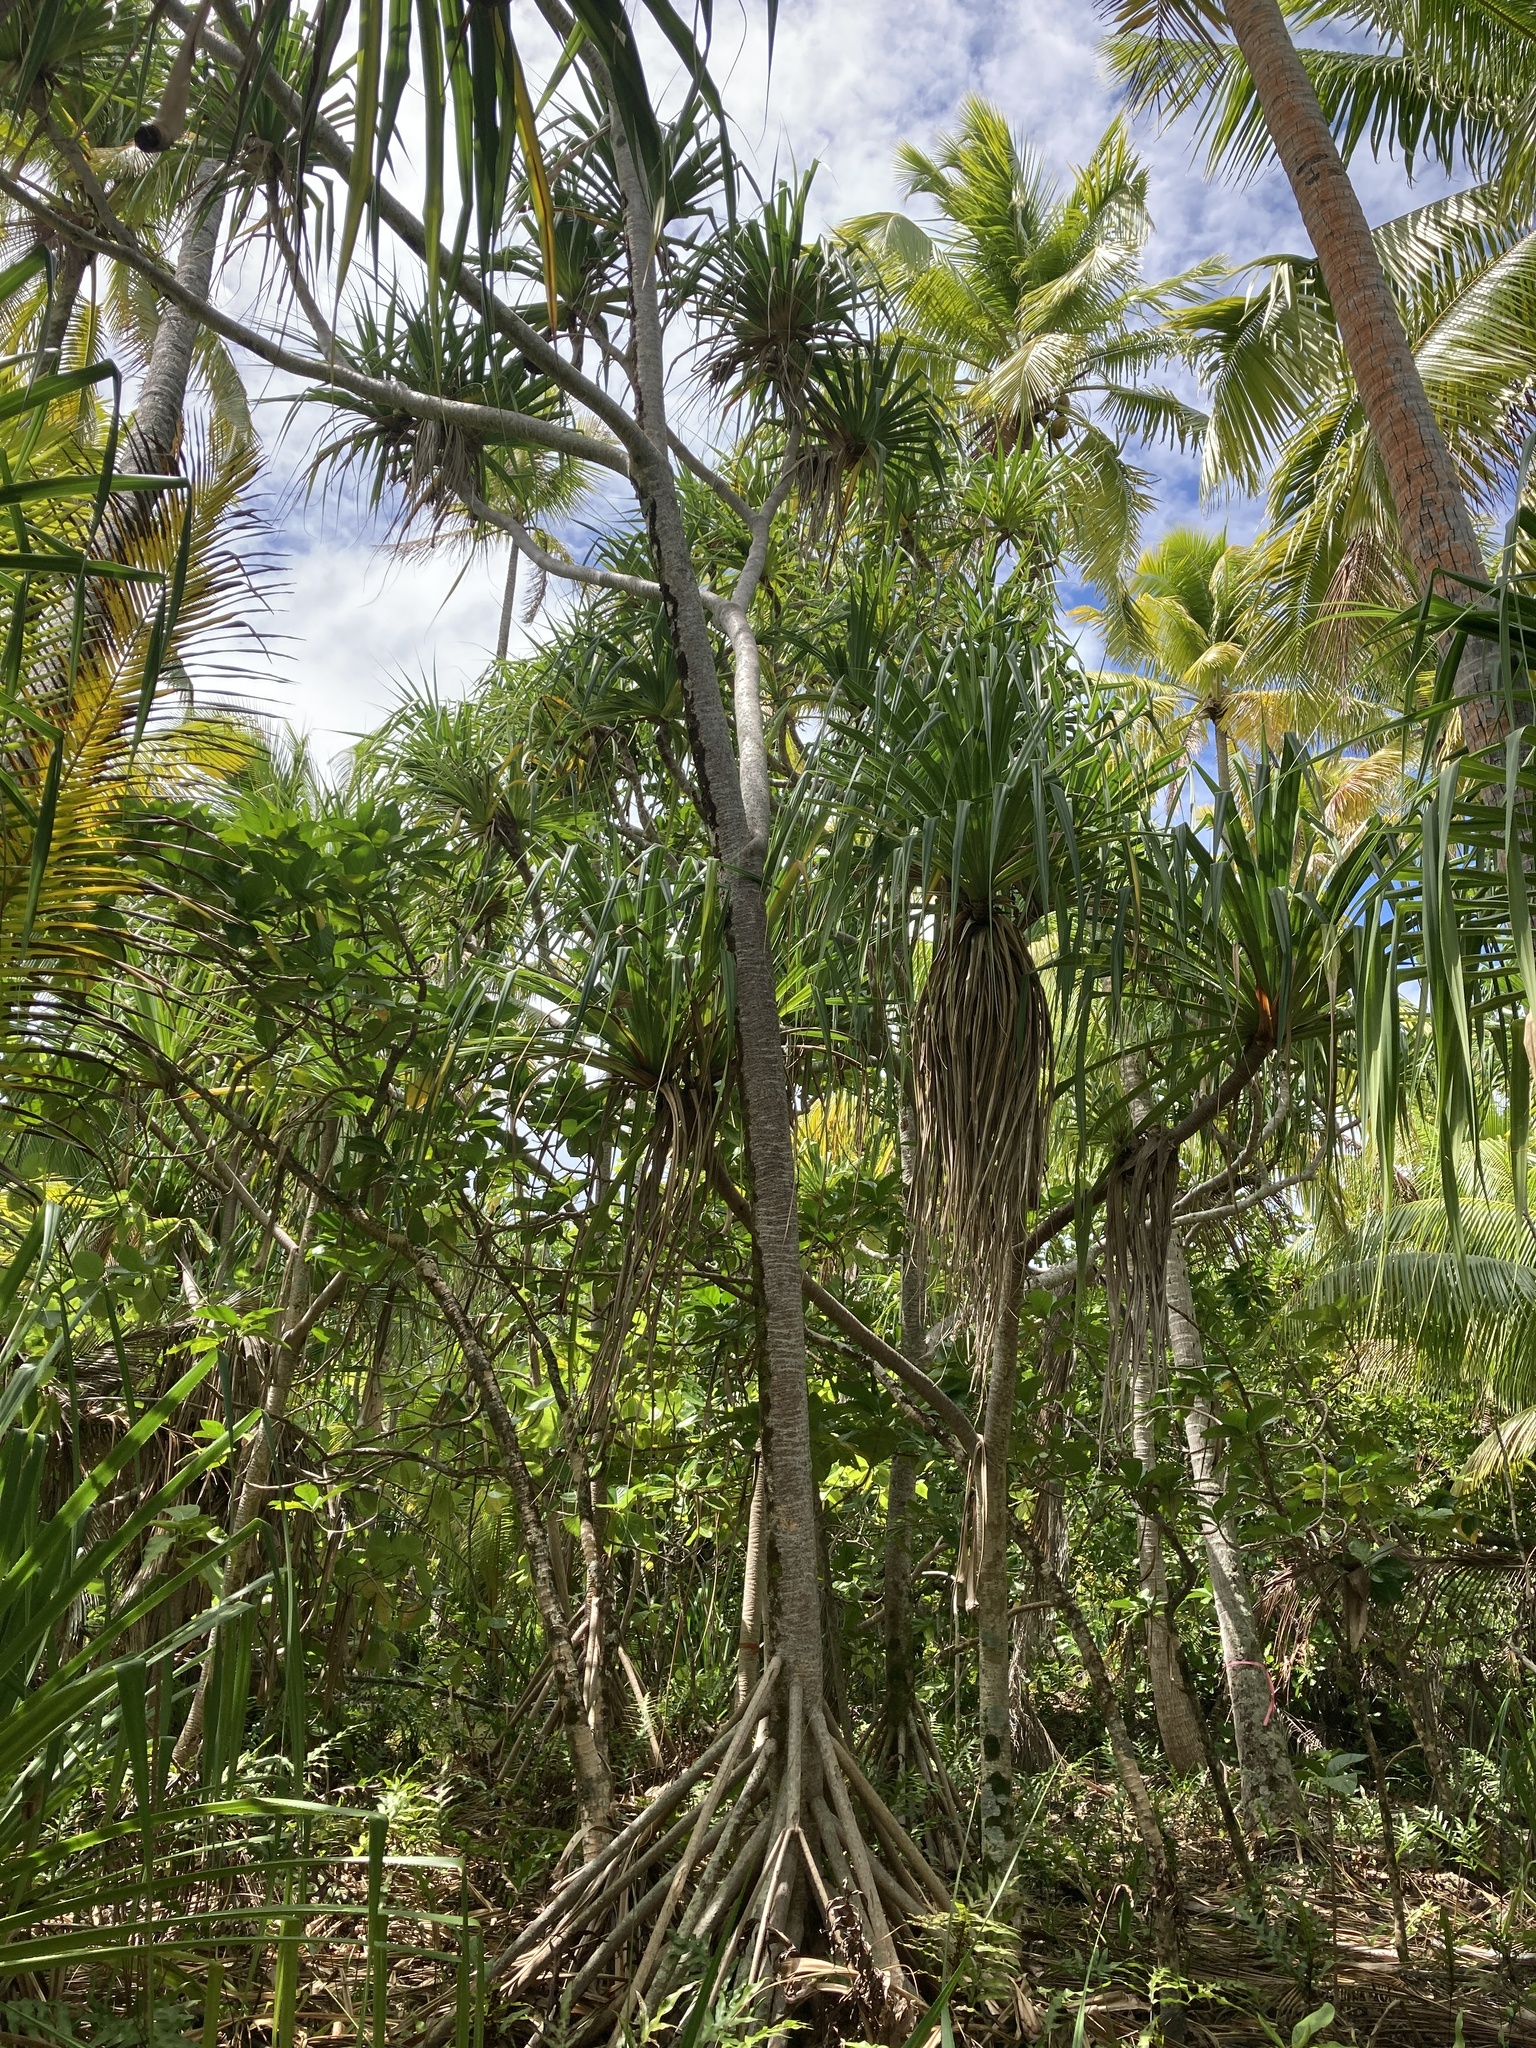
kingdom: Plantae
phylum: Tracheophyta
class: Liliopsida
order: Pandanales
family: Pandanaceae
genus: Pandanus
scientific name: Pandanus tectorius
